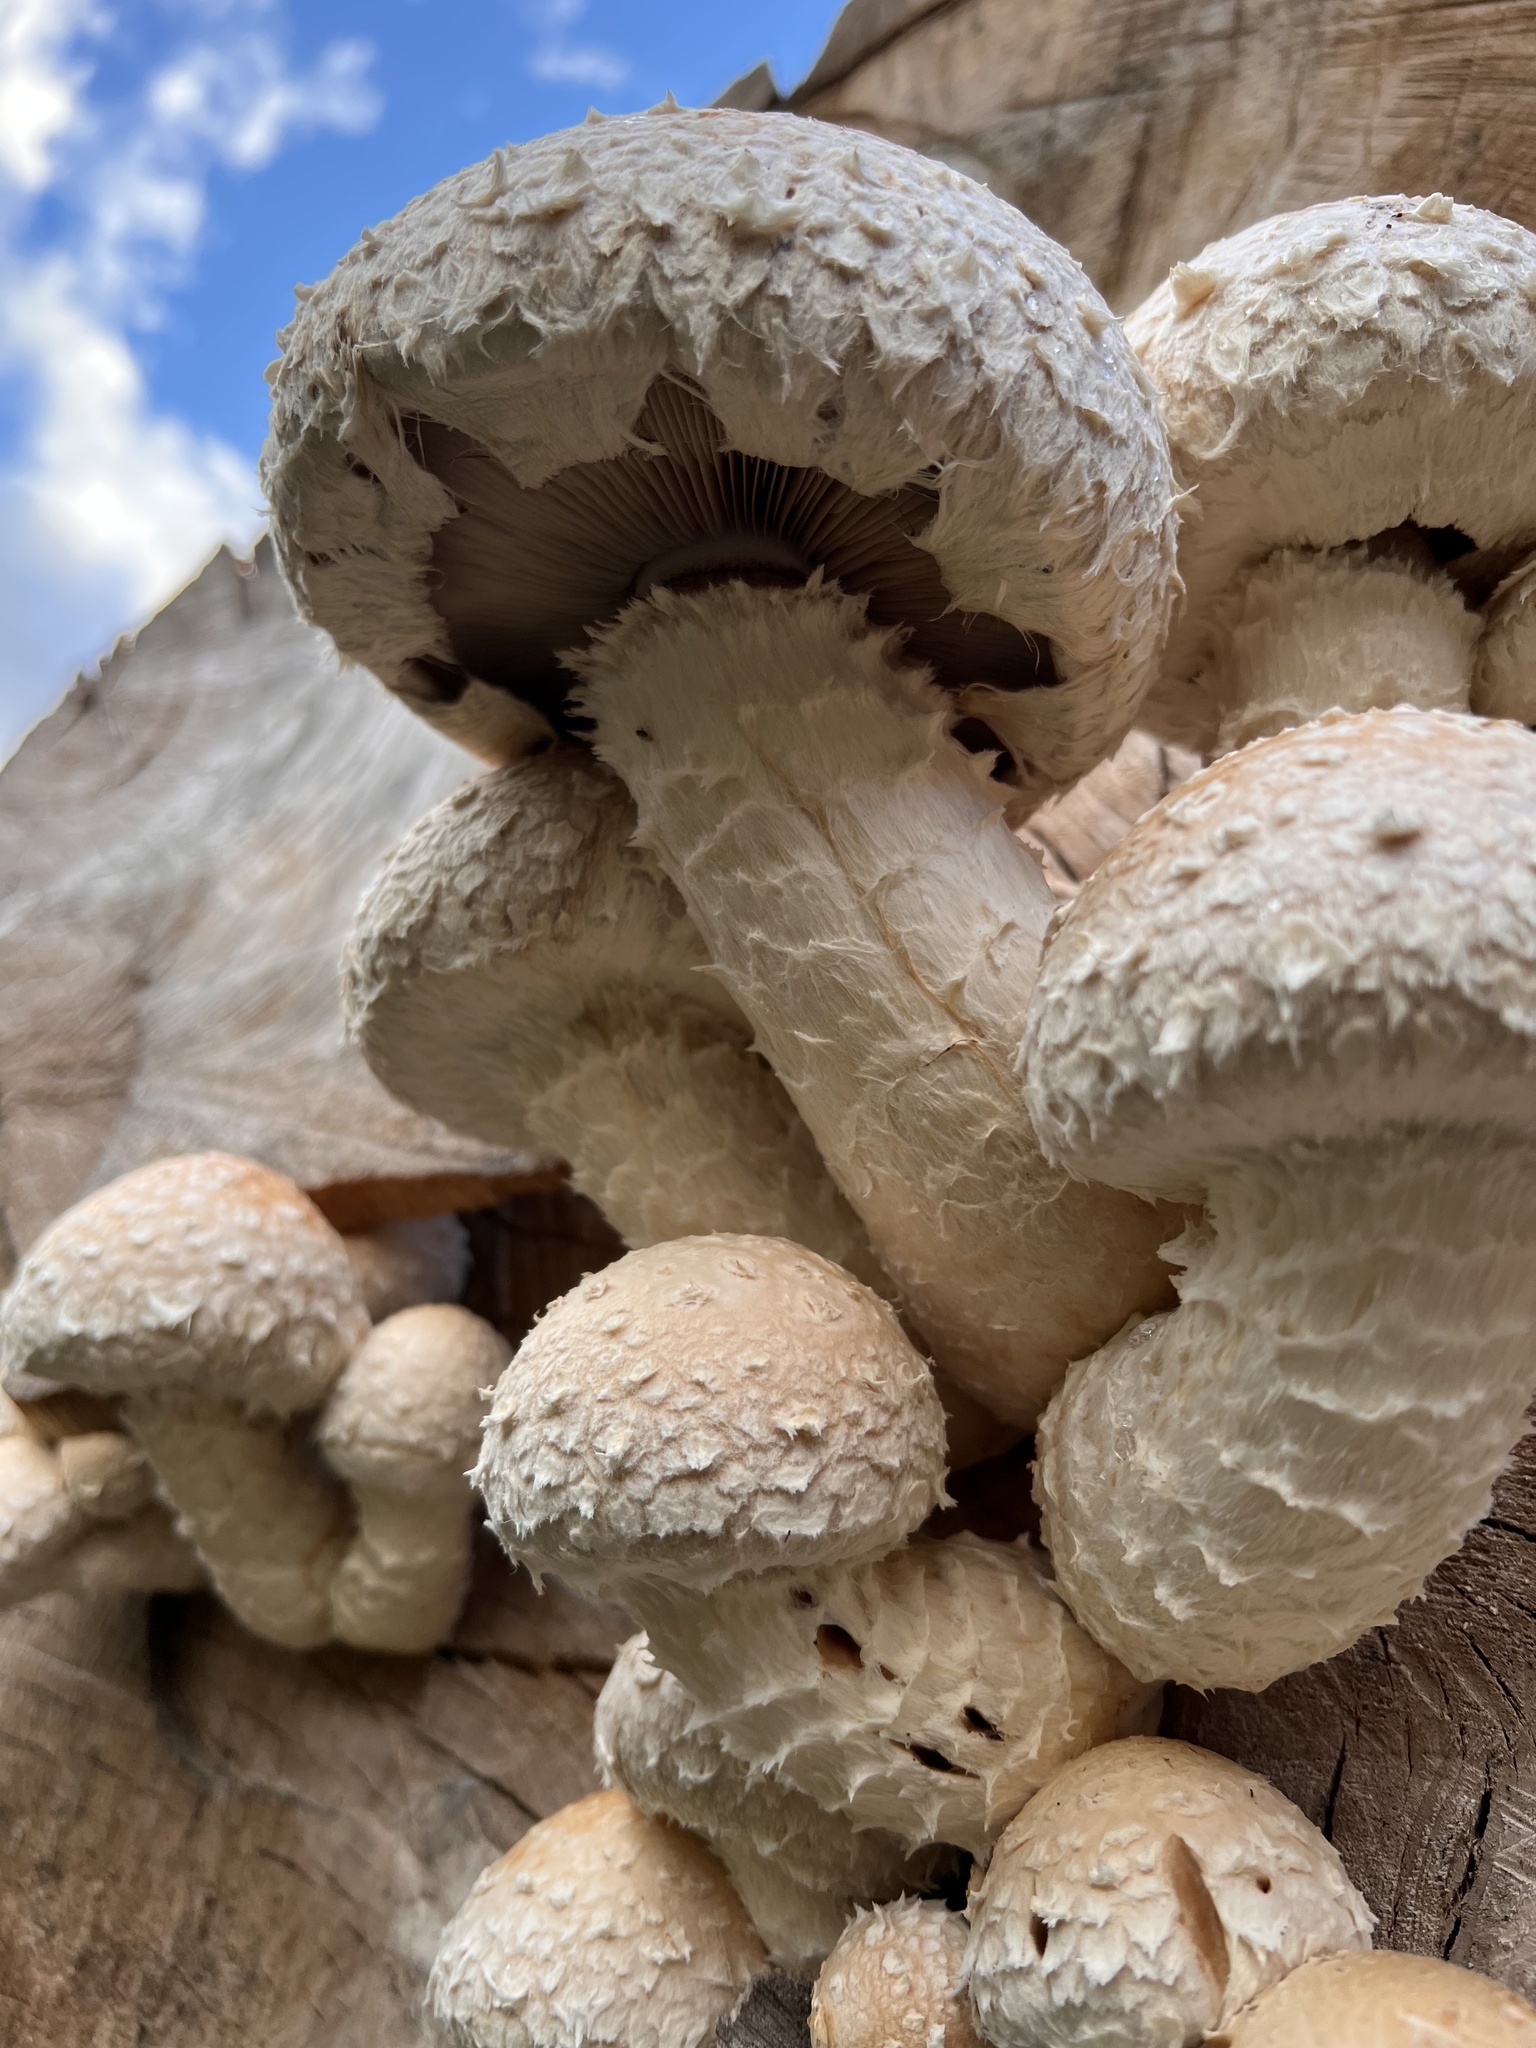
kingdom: Fungi
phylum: Basidiomycota
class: Agaricomycetes
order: Agaricales
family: Strophariaceae
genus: Pholiota
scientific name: Pholiota populnea
